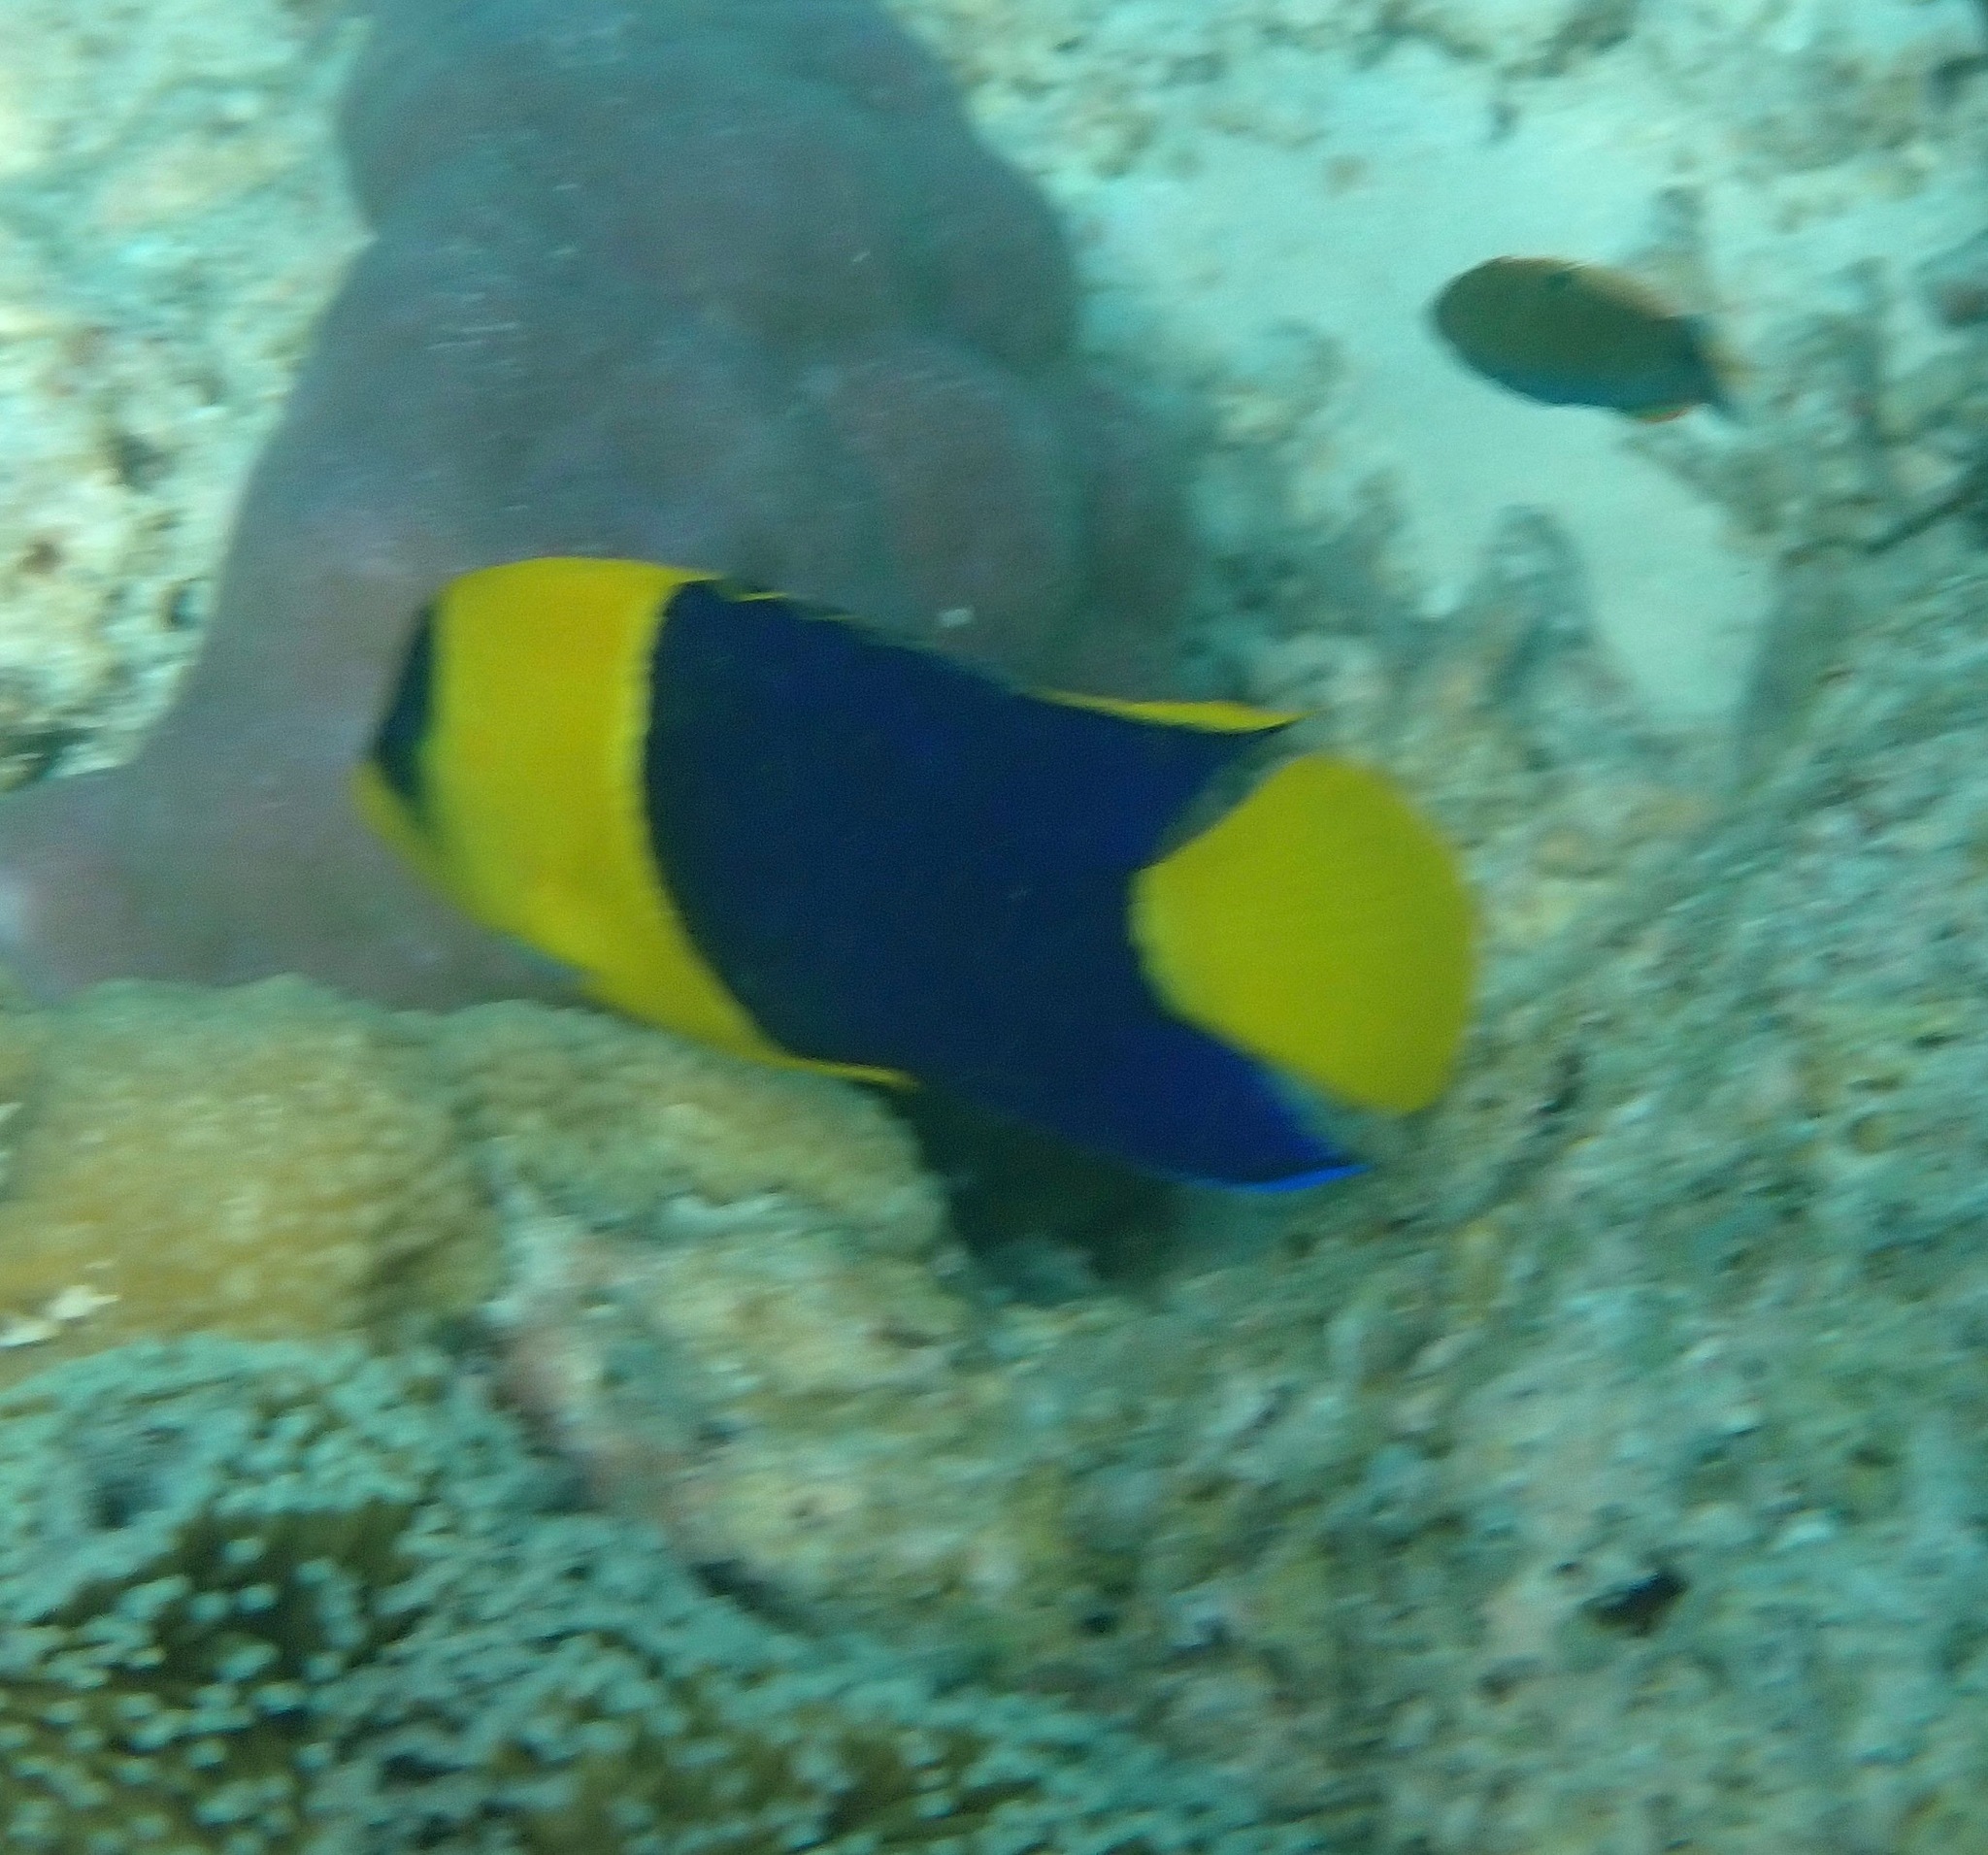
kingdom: Animalia
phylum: Chordata
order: Perciformes
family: Pomacanthidae
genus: Centropyge
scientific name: Centropyge bicolor
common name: Bicolor angelfish
